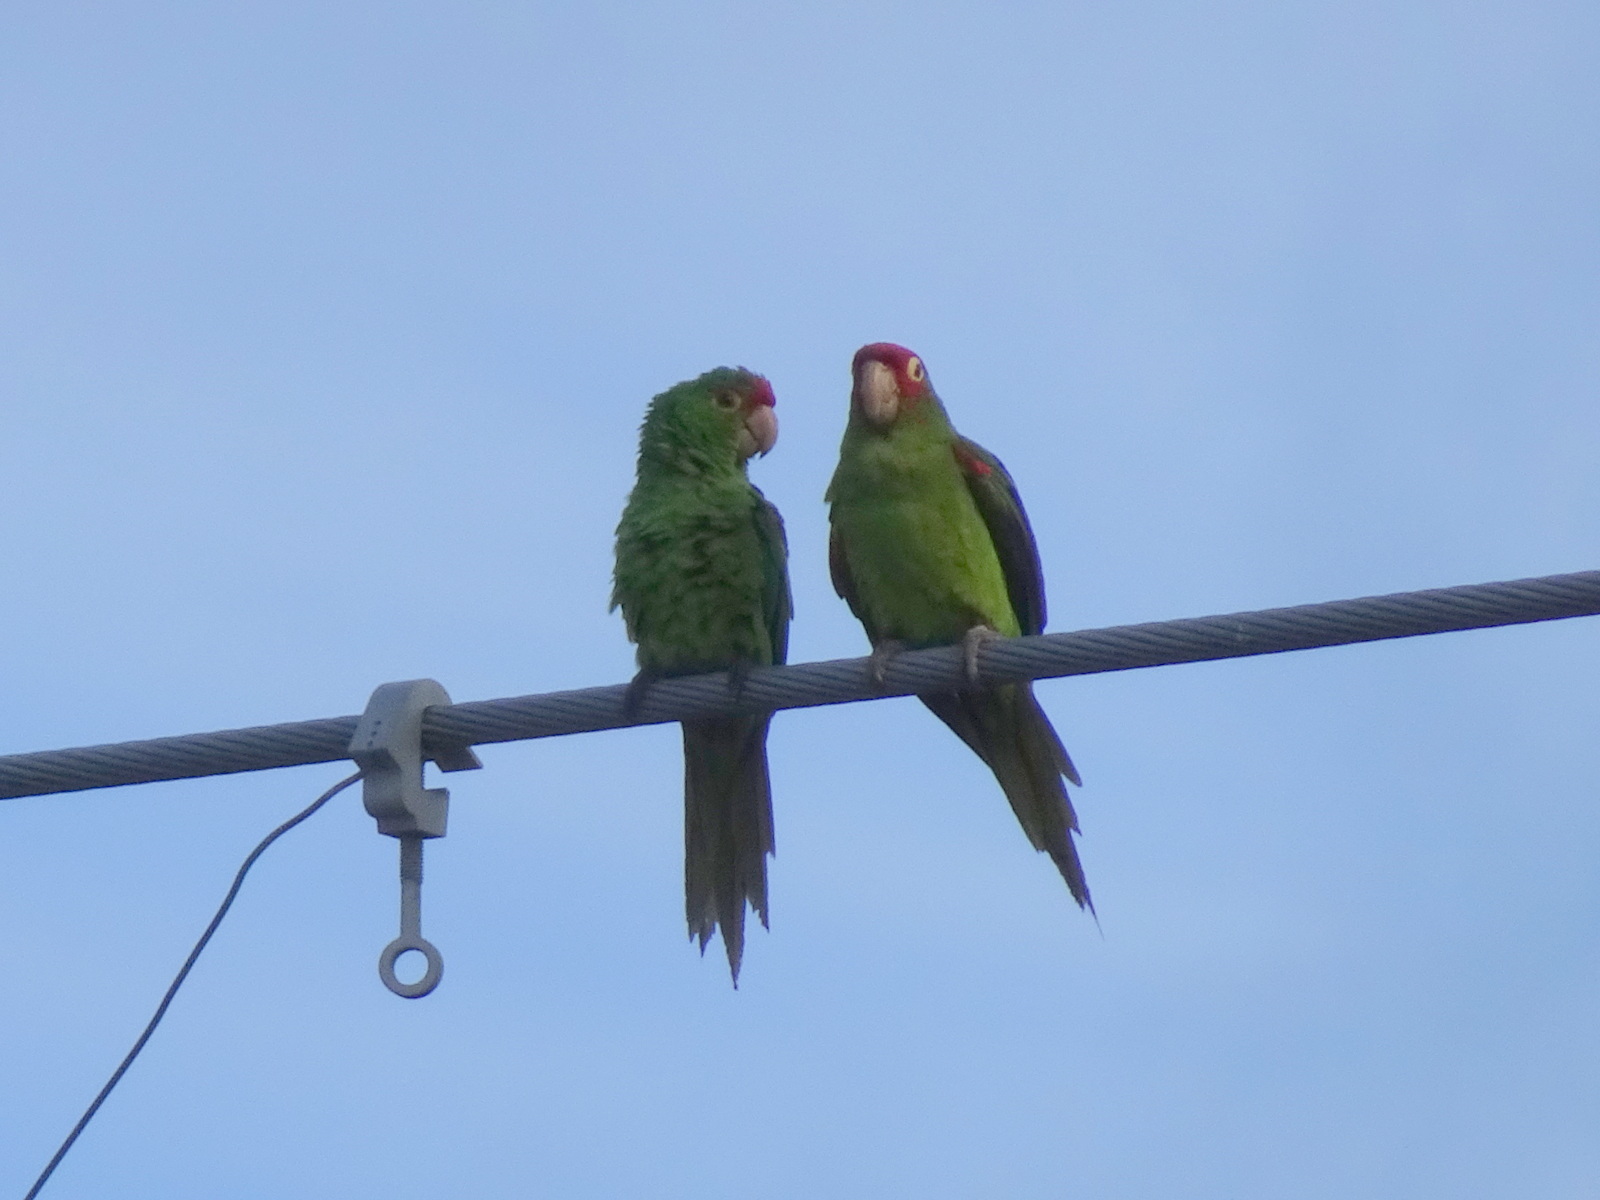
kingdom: Animalia
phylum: Chordata
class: Aves
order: Psittaciformes
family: Psittacidae
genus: Aratinga
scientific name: Aratinga erythrogenys
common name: Red-masked parakeet
